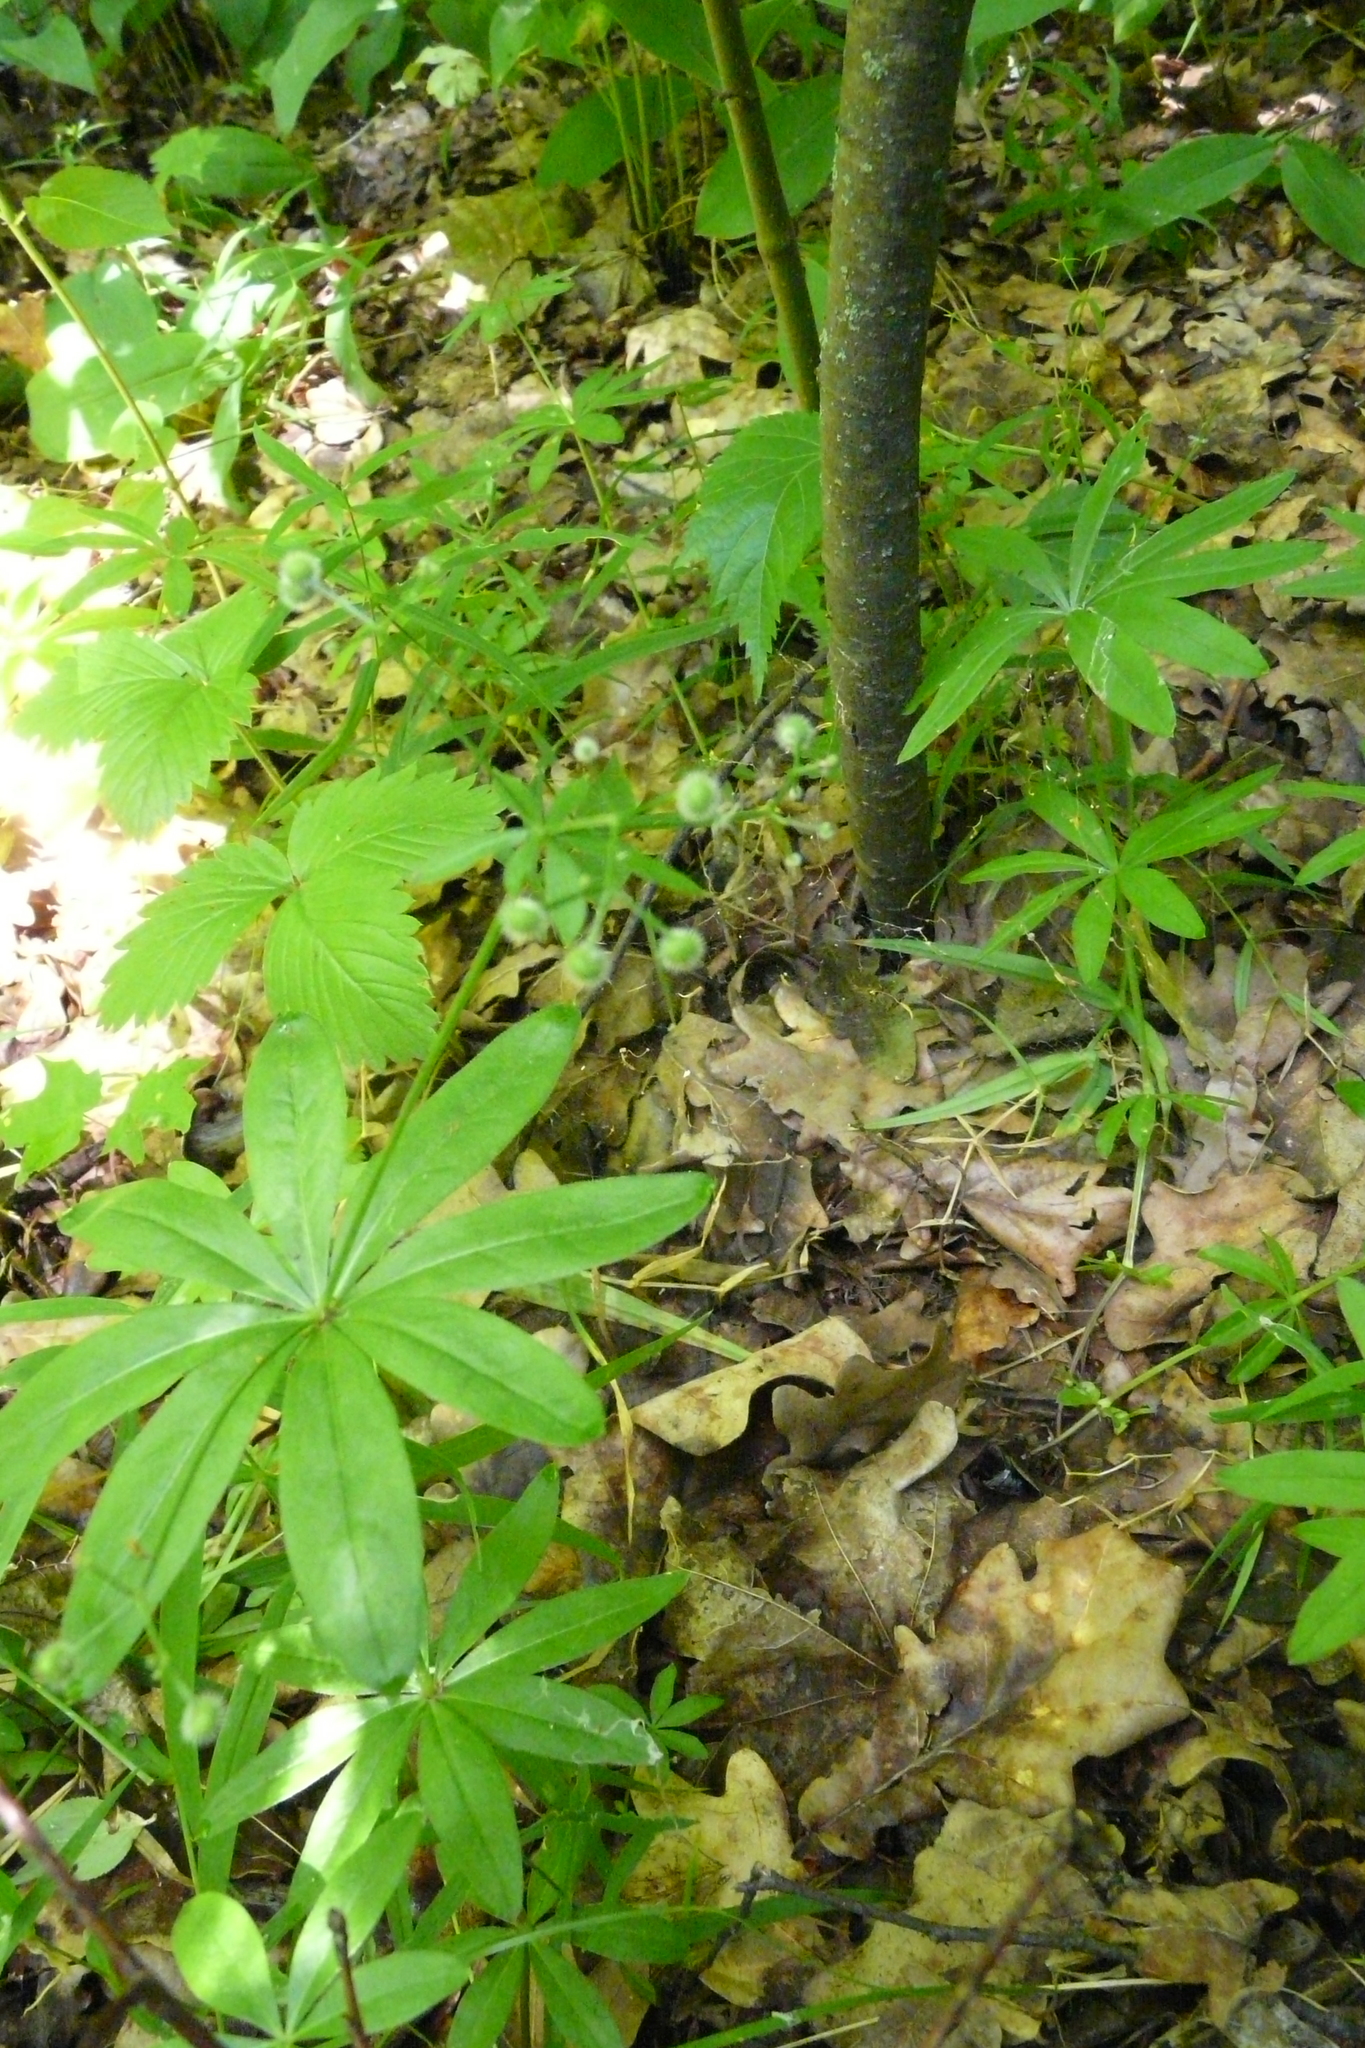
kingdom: Plantae
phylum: Tracheophyta
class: Magnoliopsida
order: Gentianales
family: Rubiaceae
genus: Galium
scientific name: Galium odoratum
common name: Sweet woodruff
